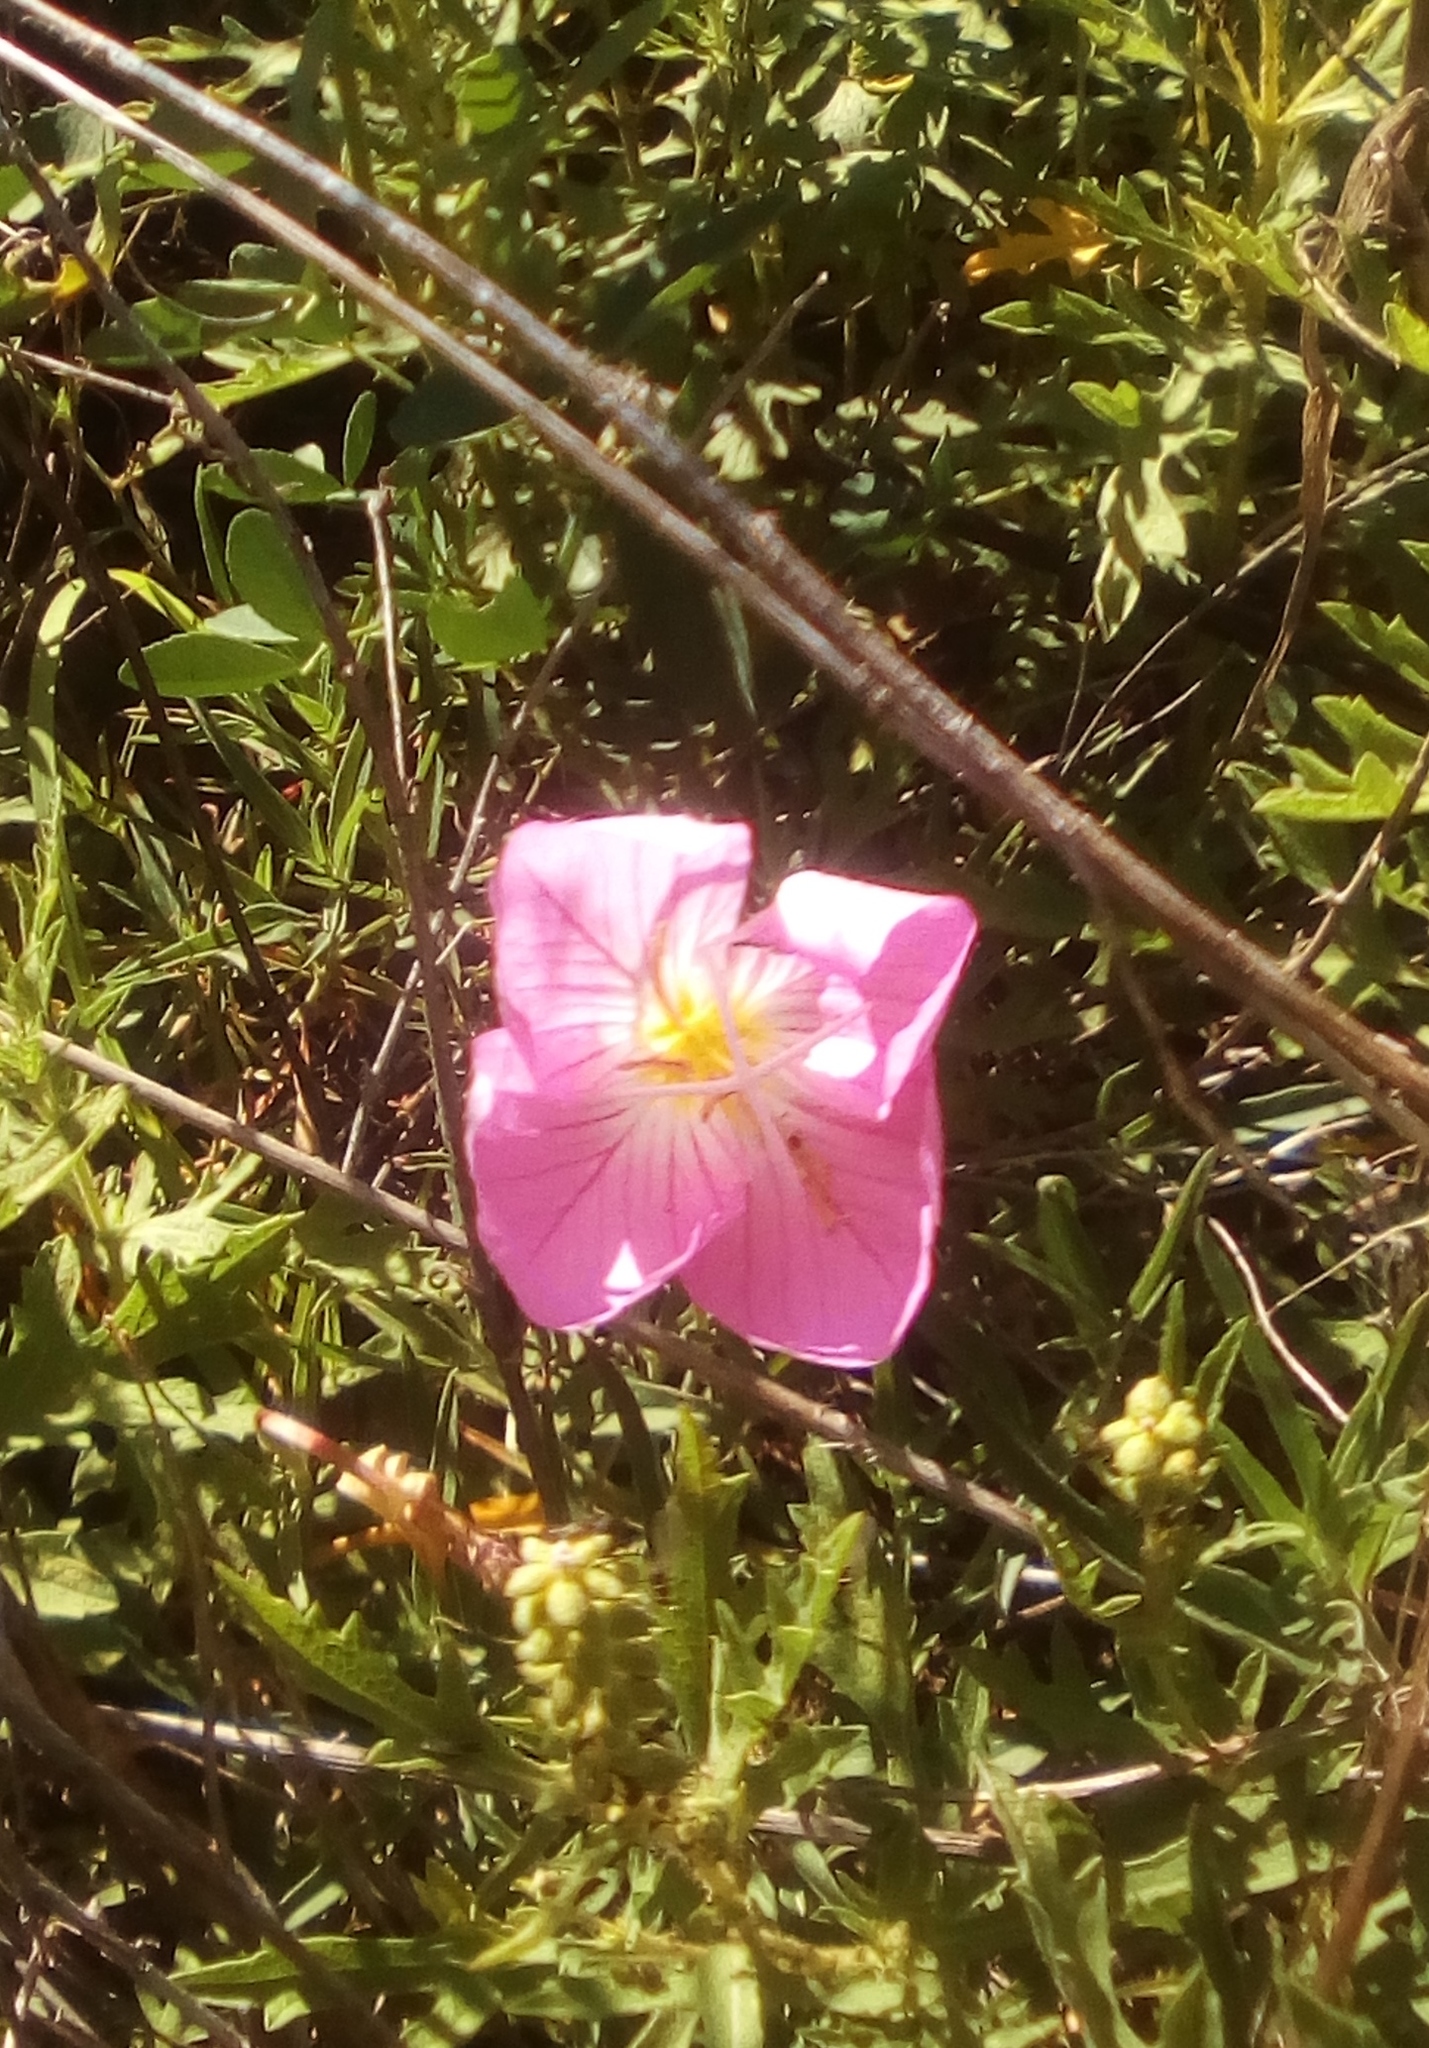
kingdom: Plantae
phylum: Tracheophyta
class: Magnoliopsida
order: Myrtales
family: Onagraceae
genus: Oenothera
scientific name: Oenothera speciosa
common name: White evening-primrose
